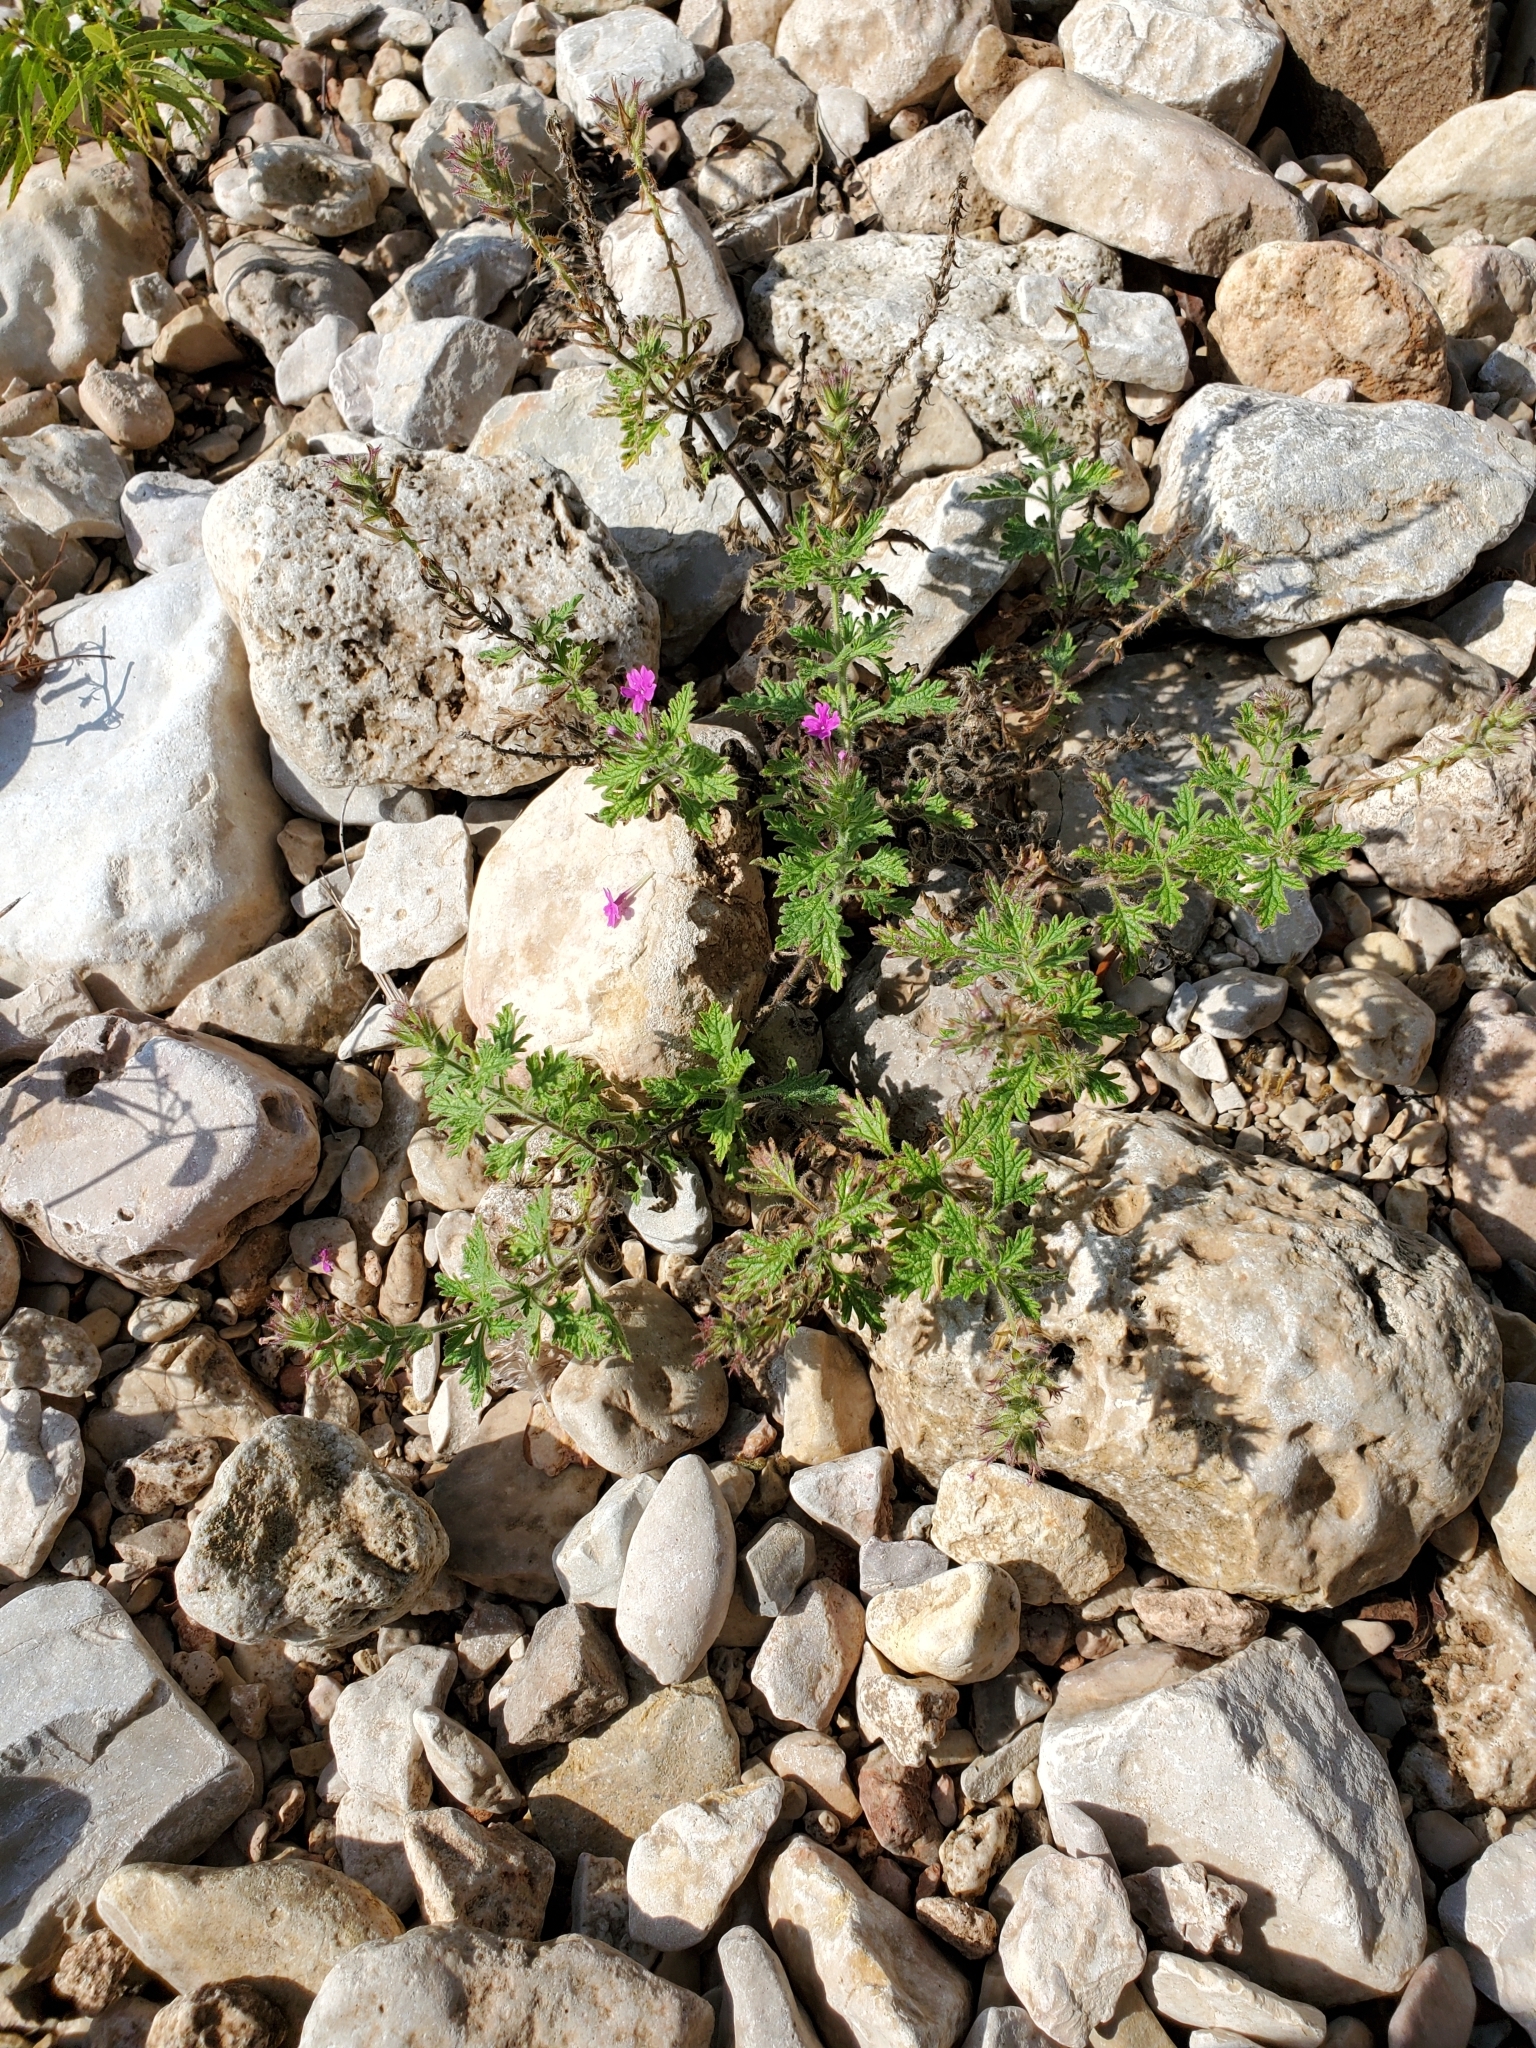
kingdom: Plantae
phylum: Tracheophyta
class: Magnoliopsida
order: Lamiales
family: Verbenaceae
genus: Verbena
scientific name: Verbena tumidula
